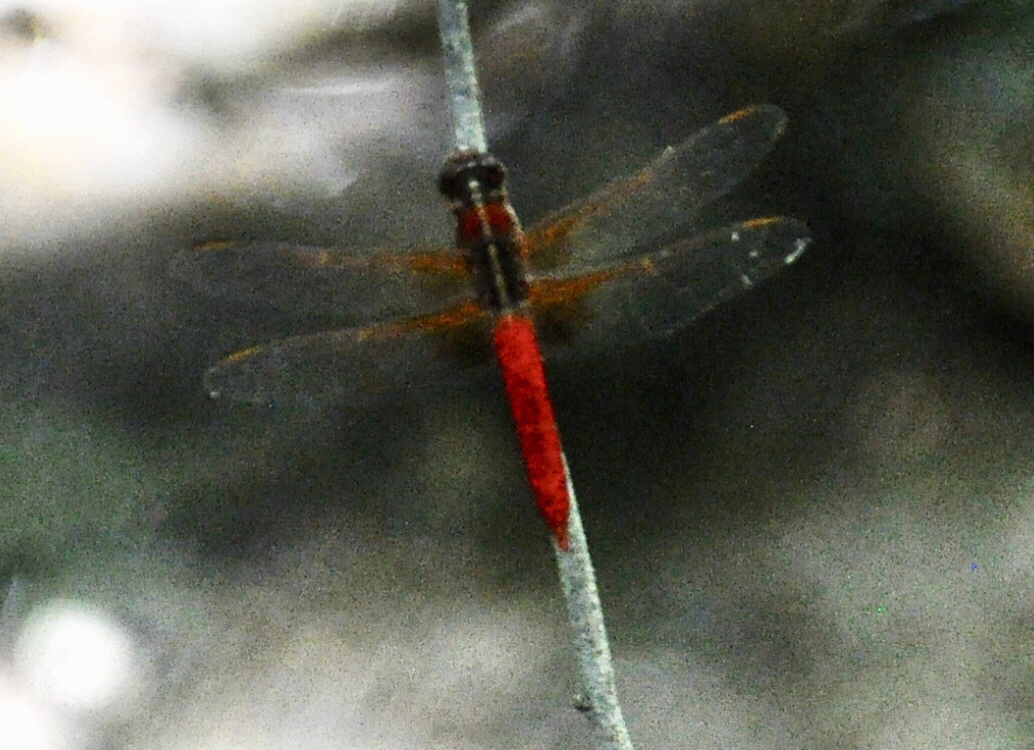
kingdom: Animalia
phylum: Arthropoda
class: Insecta
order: Odonata
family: Libellulidae
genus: Libellula
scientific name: Libellula croceipennis
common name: Neon skimmer
